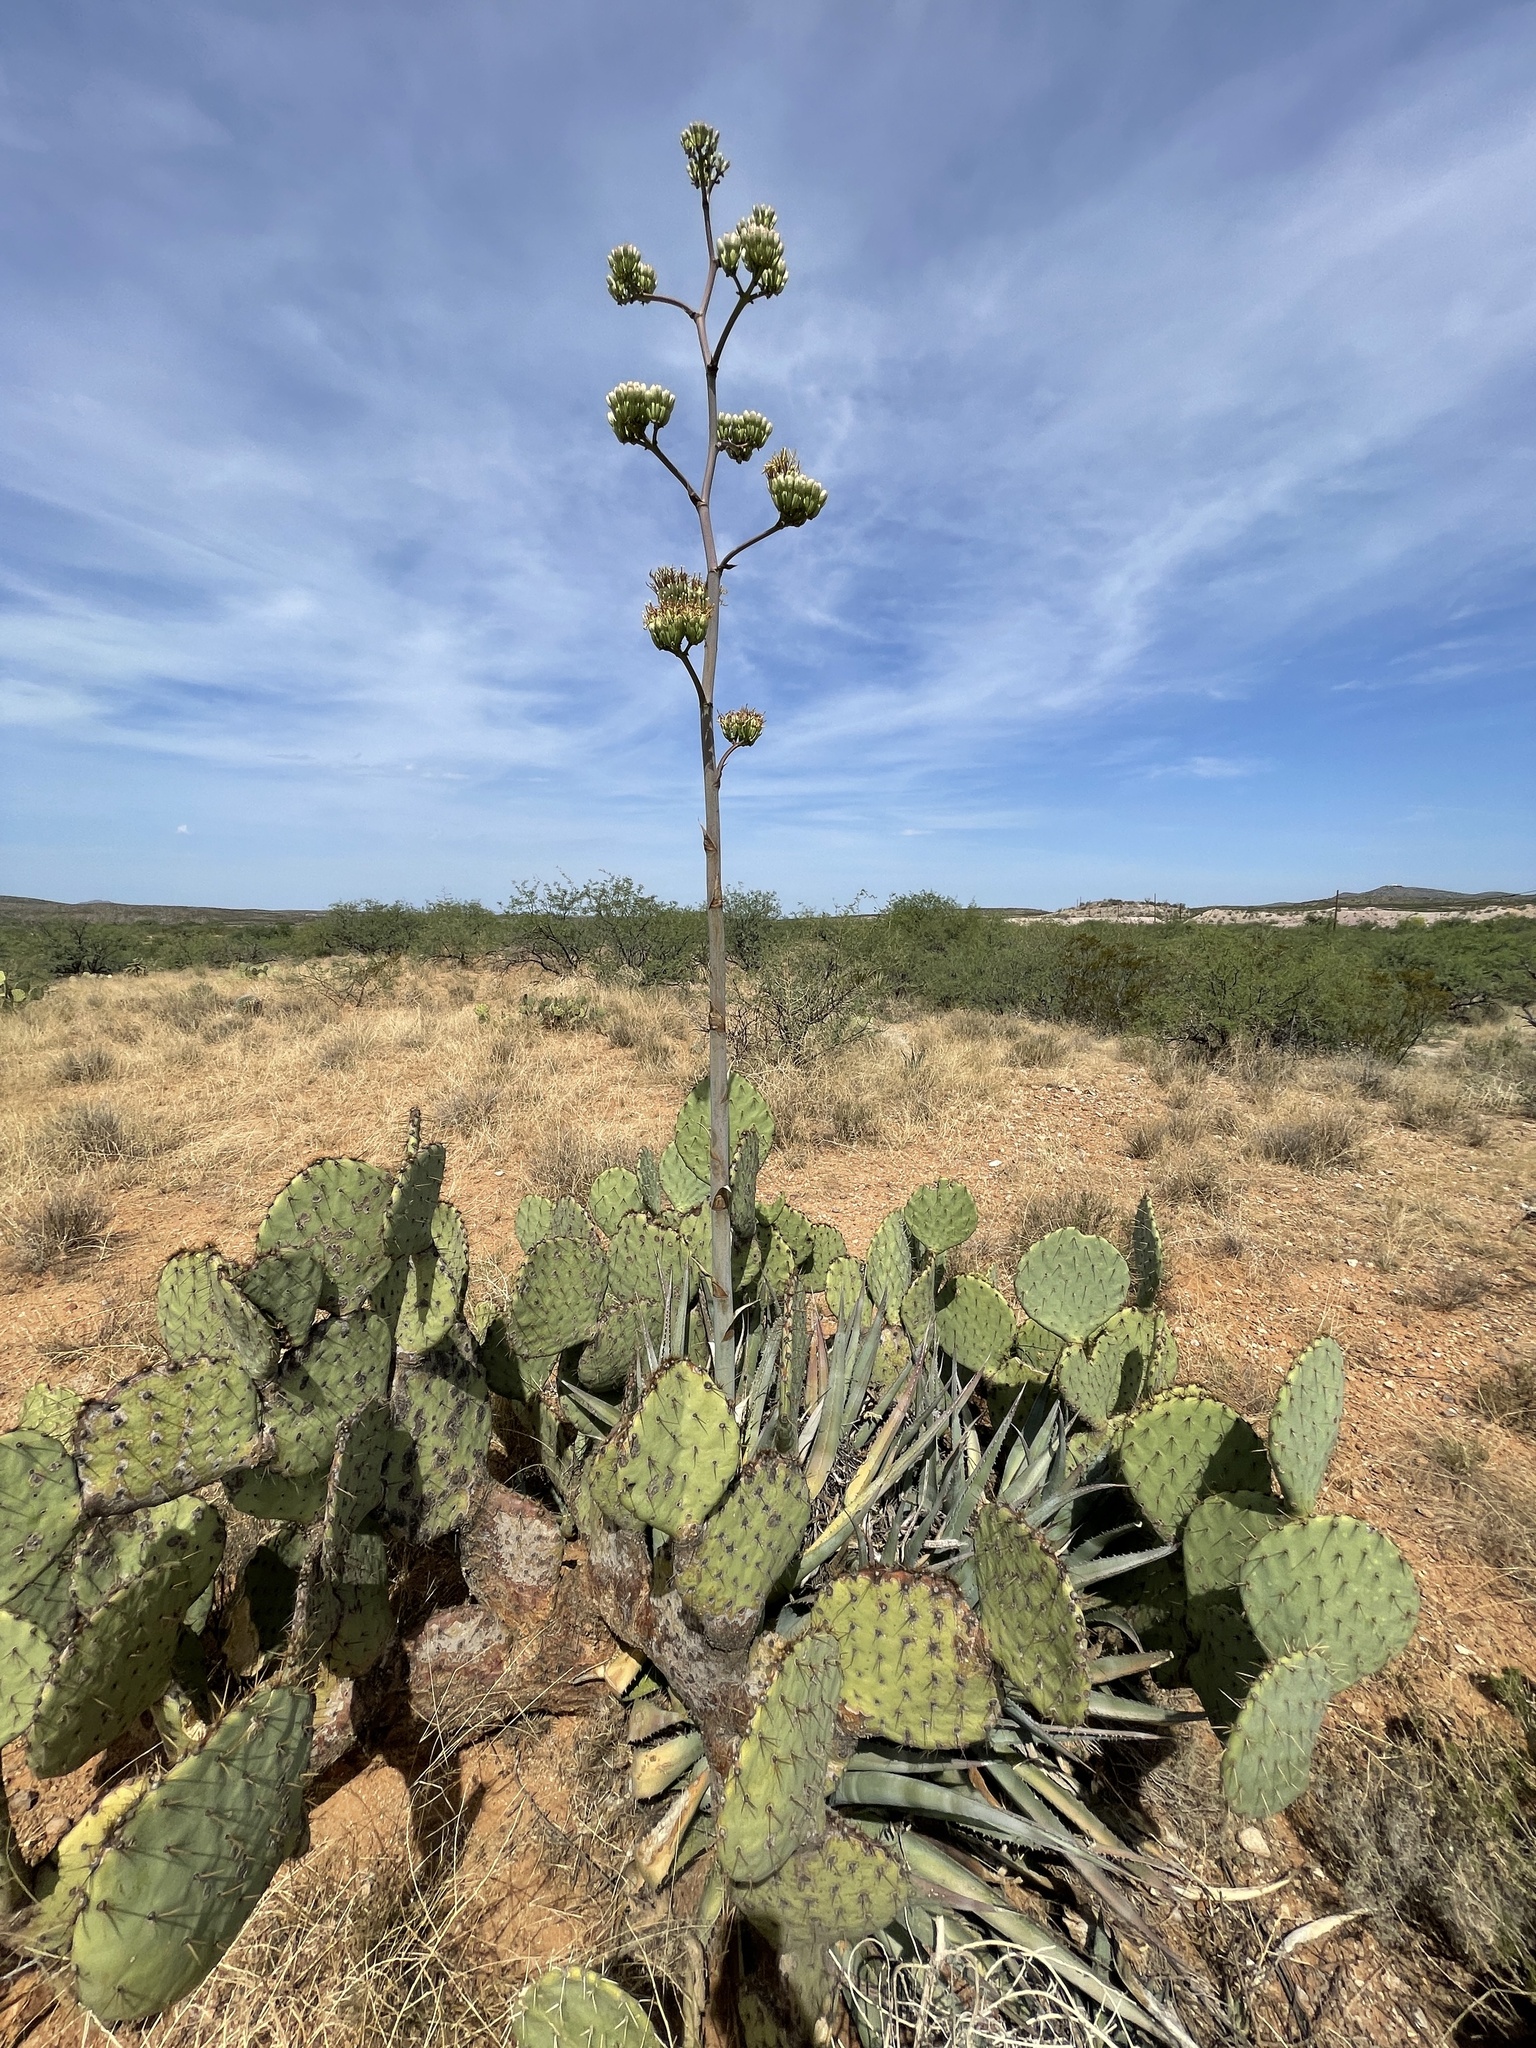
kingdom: Plantae
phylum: Tracheophyta
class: Liliopsida
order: Asparagales
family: Asparagaceae
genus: Agave
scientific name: Agave palmeri
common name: Palmer agave
